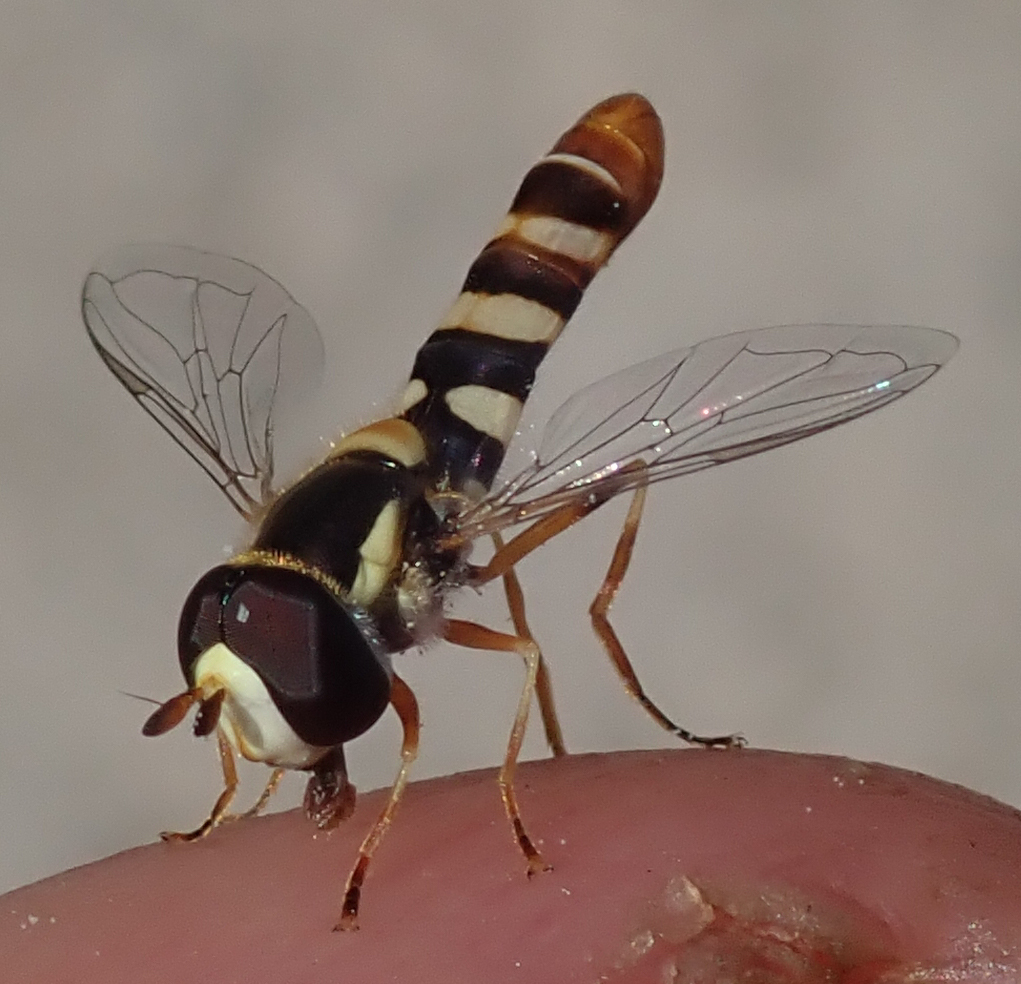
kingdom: Animalia
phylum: Arthropoda
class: Insecta
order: Diptera
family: Syrphidae
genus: Ischiodon
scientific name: Ischiodon aegyptius
